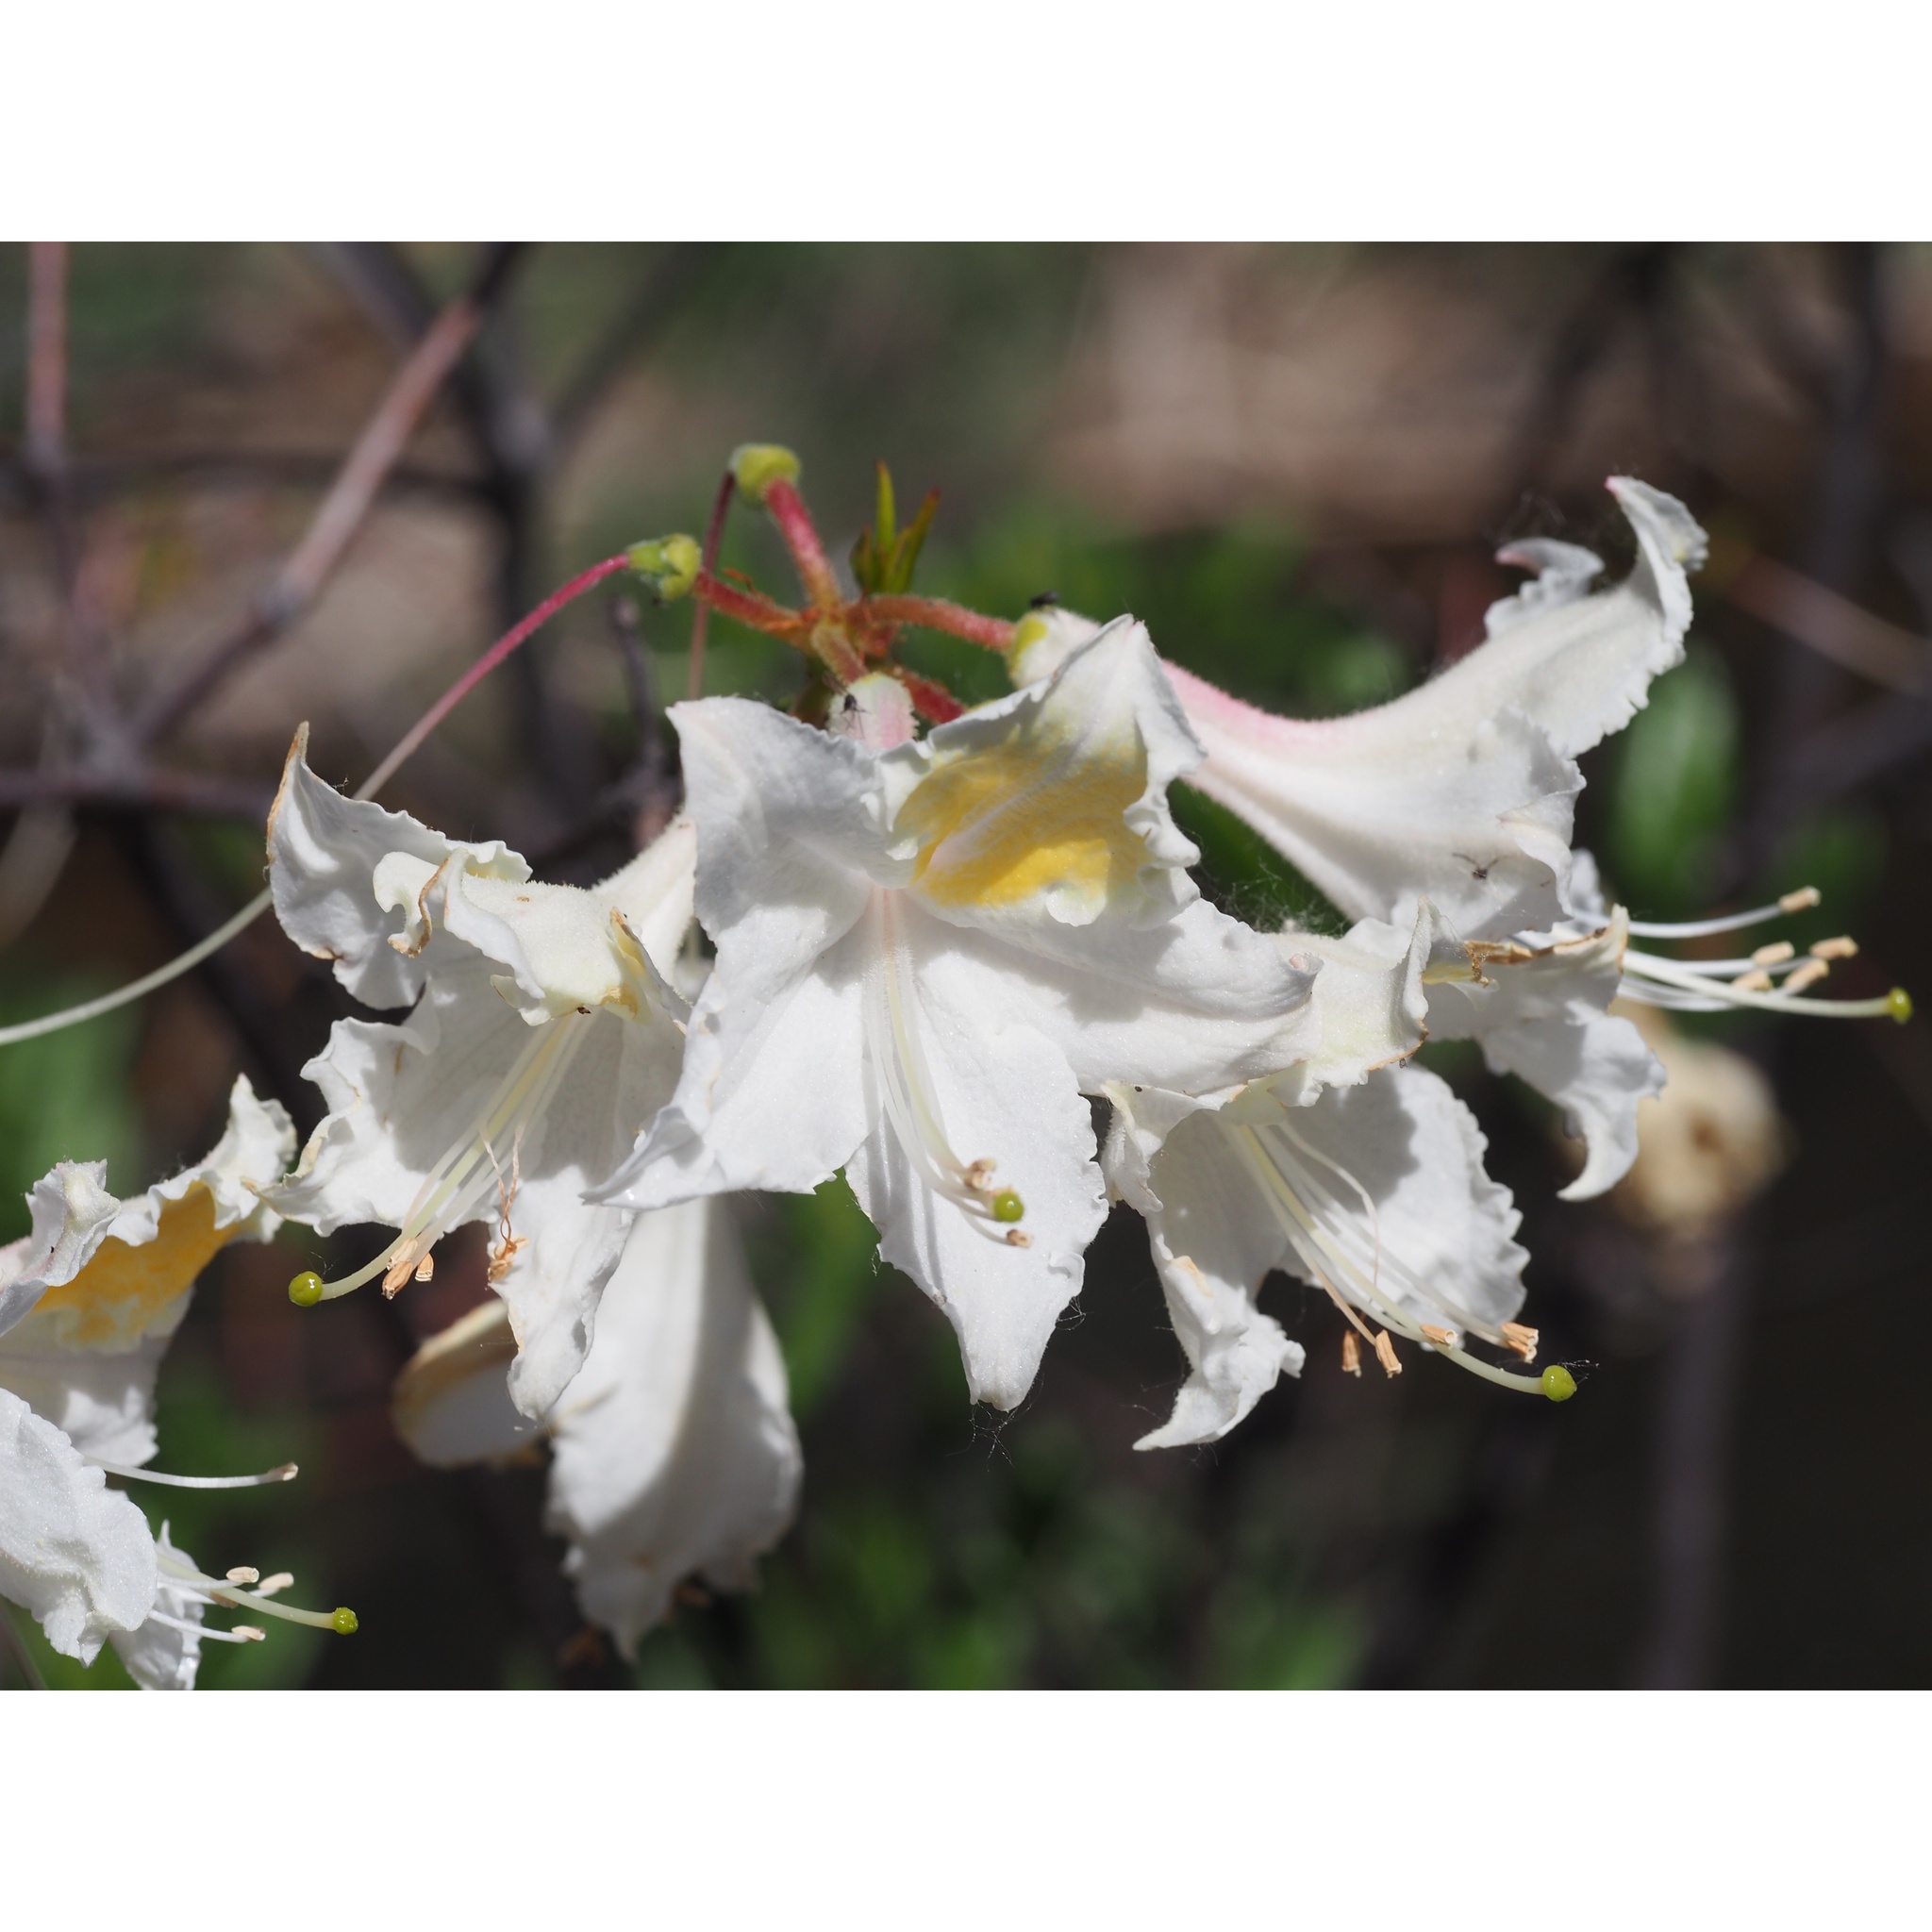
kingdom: Plantae
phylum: Tracheophyta
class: Magnoliopsida
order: Ericales
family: Ericaceae
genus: Rhododendron
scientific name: Rhododendron occidentale
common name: Western azalea
